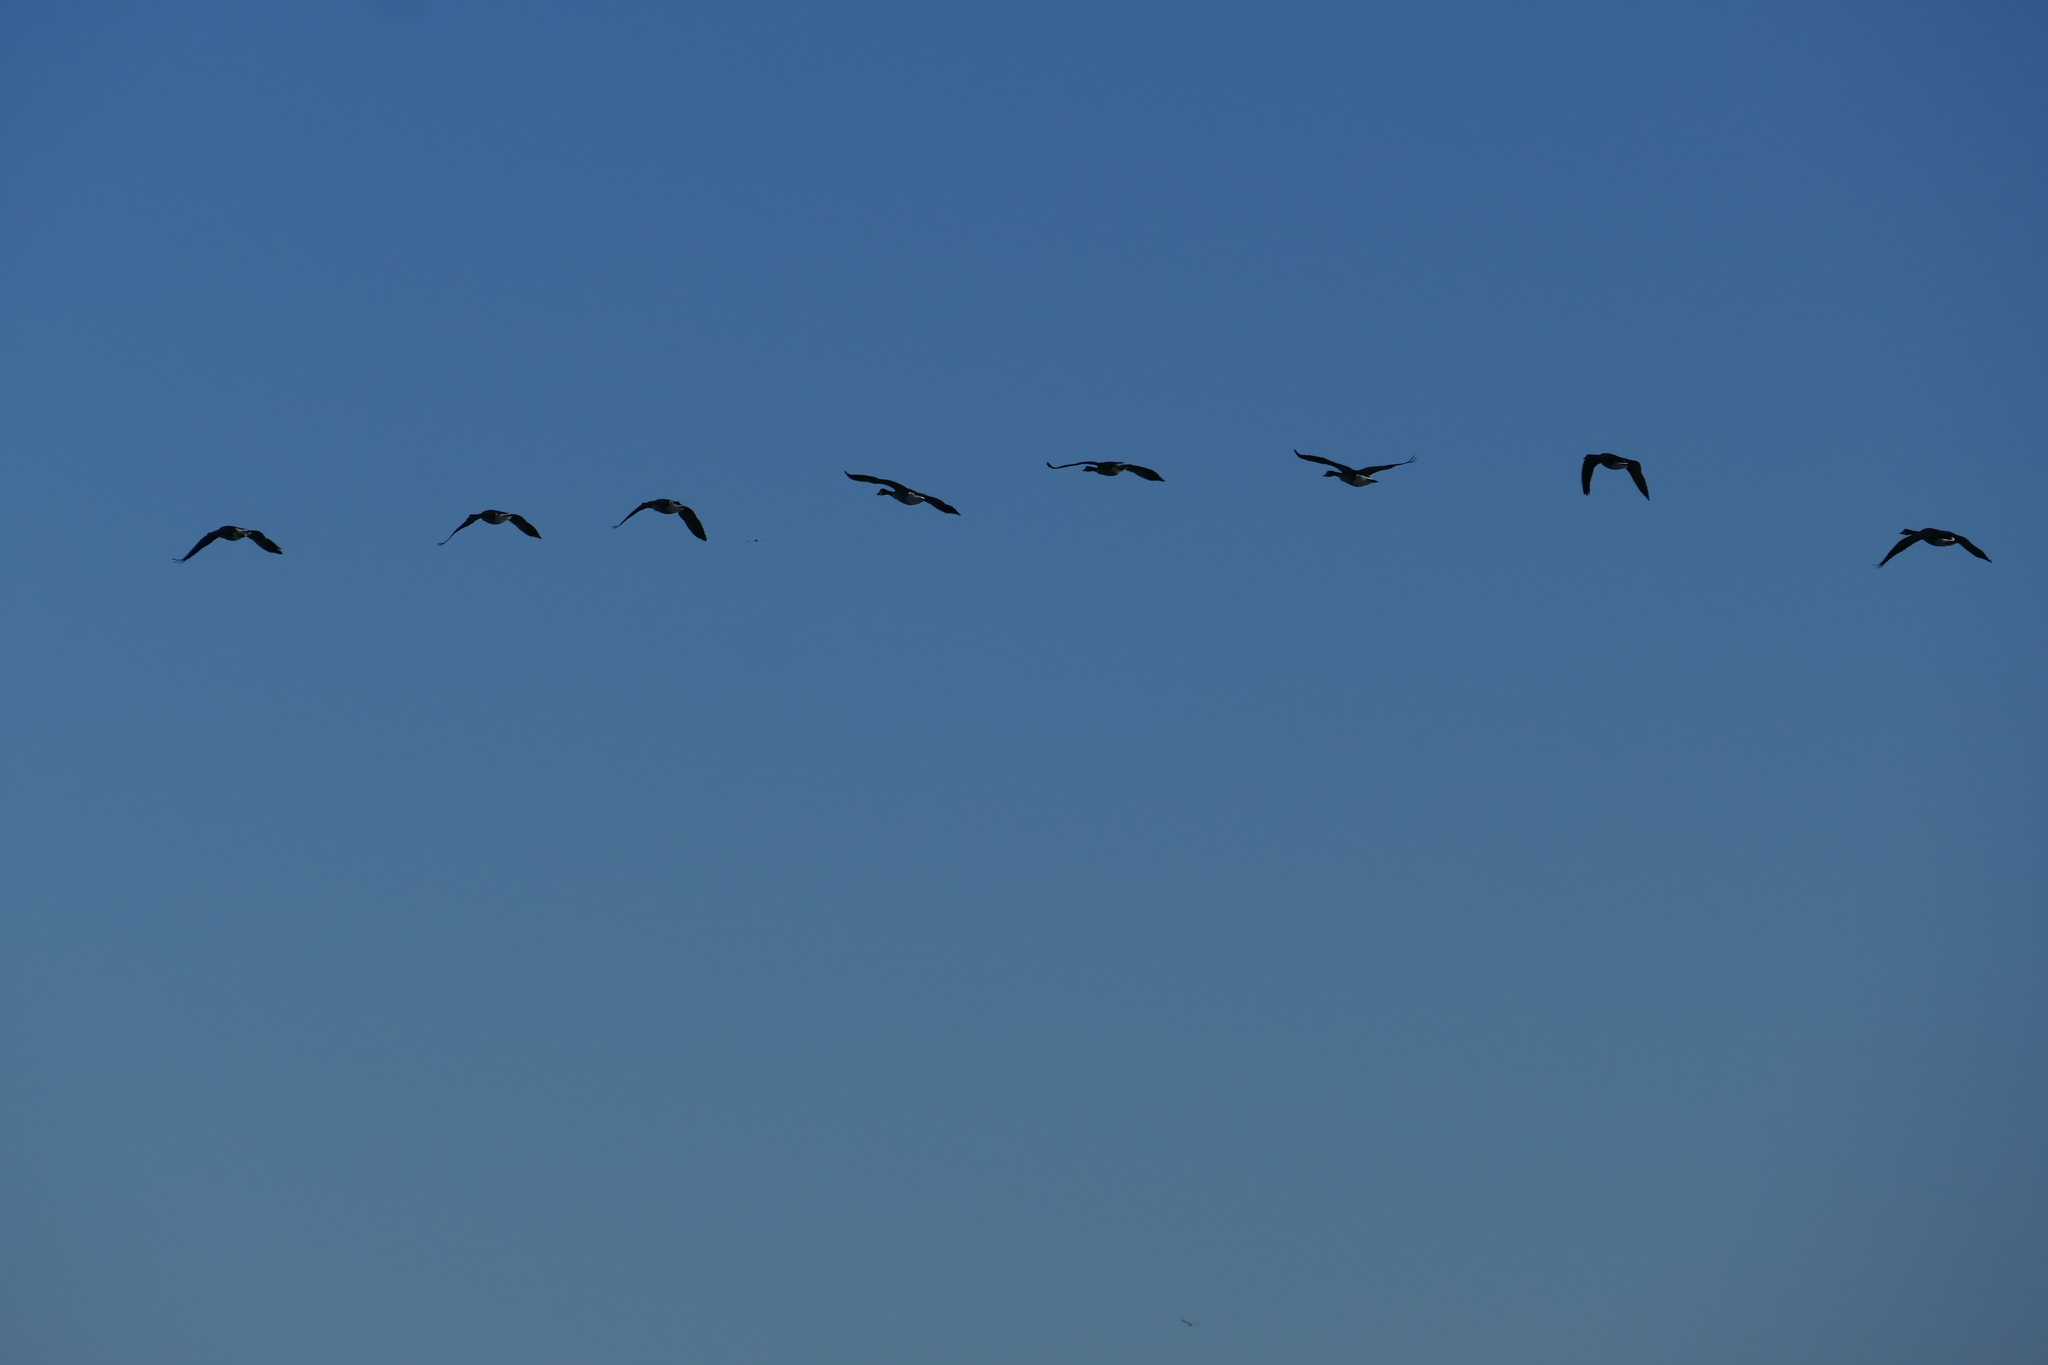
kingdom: Animalia
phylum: Chordata
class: Aves
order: Anseriformes
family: Anatidae
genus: Branta
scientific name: Branta canadensis
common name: Canada goose
